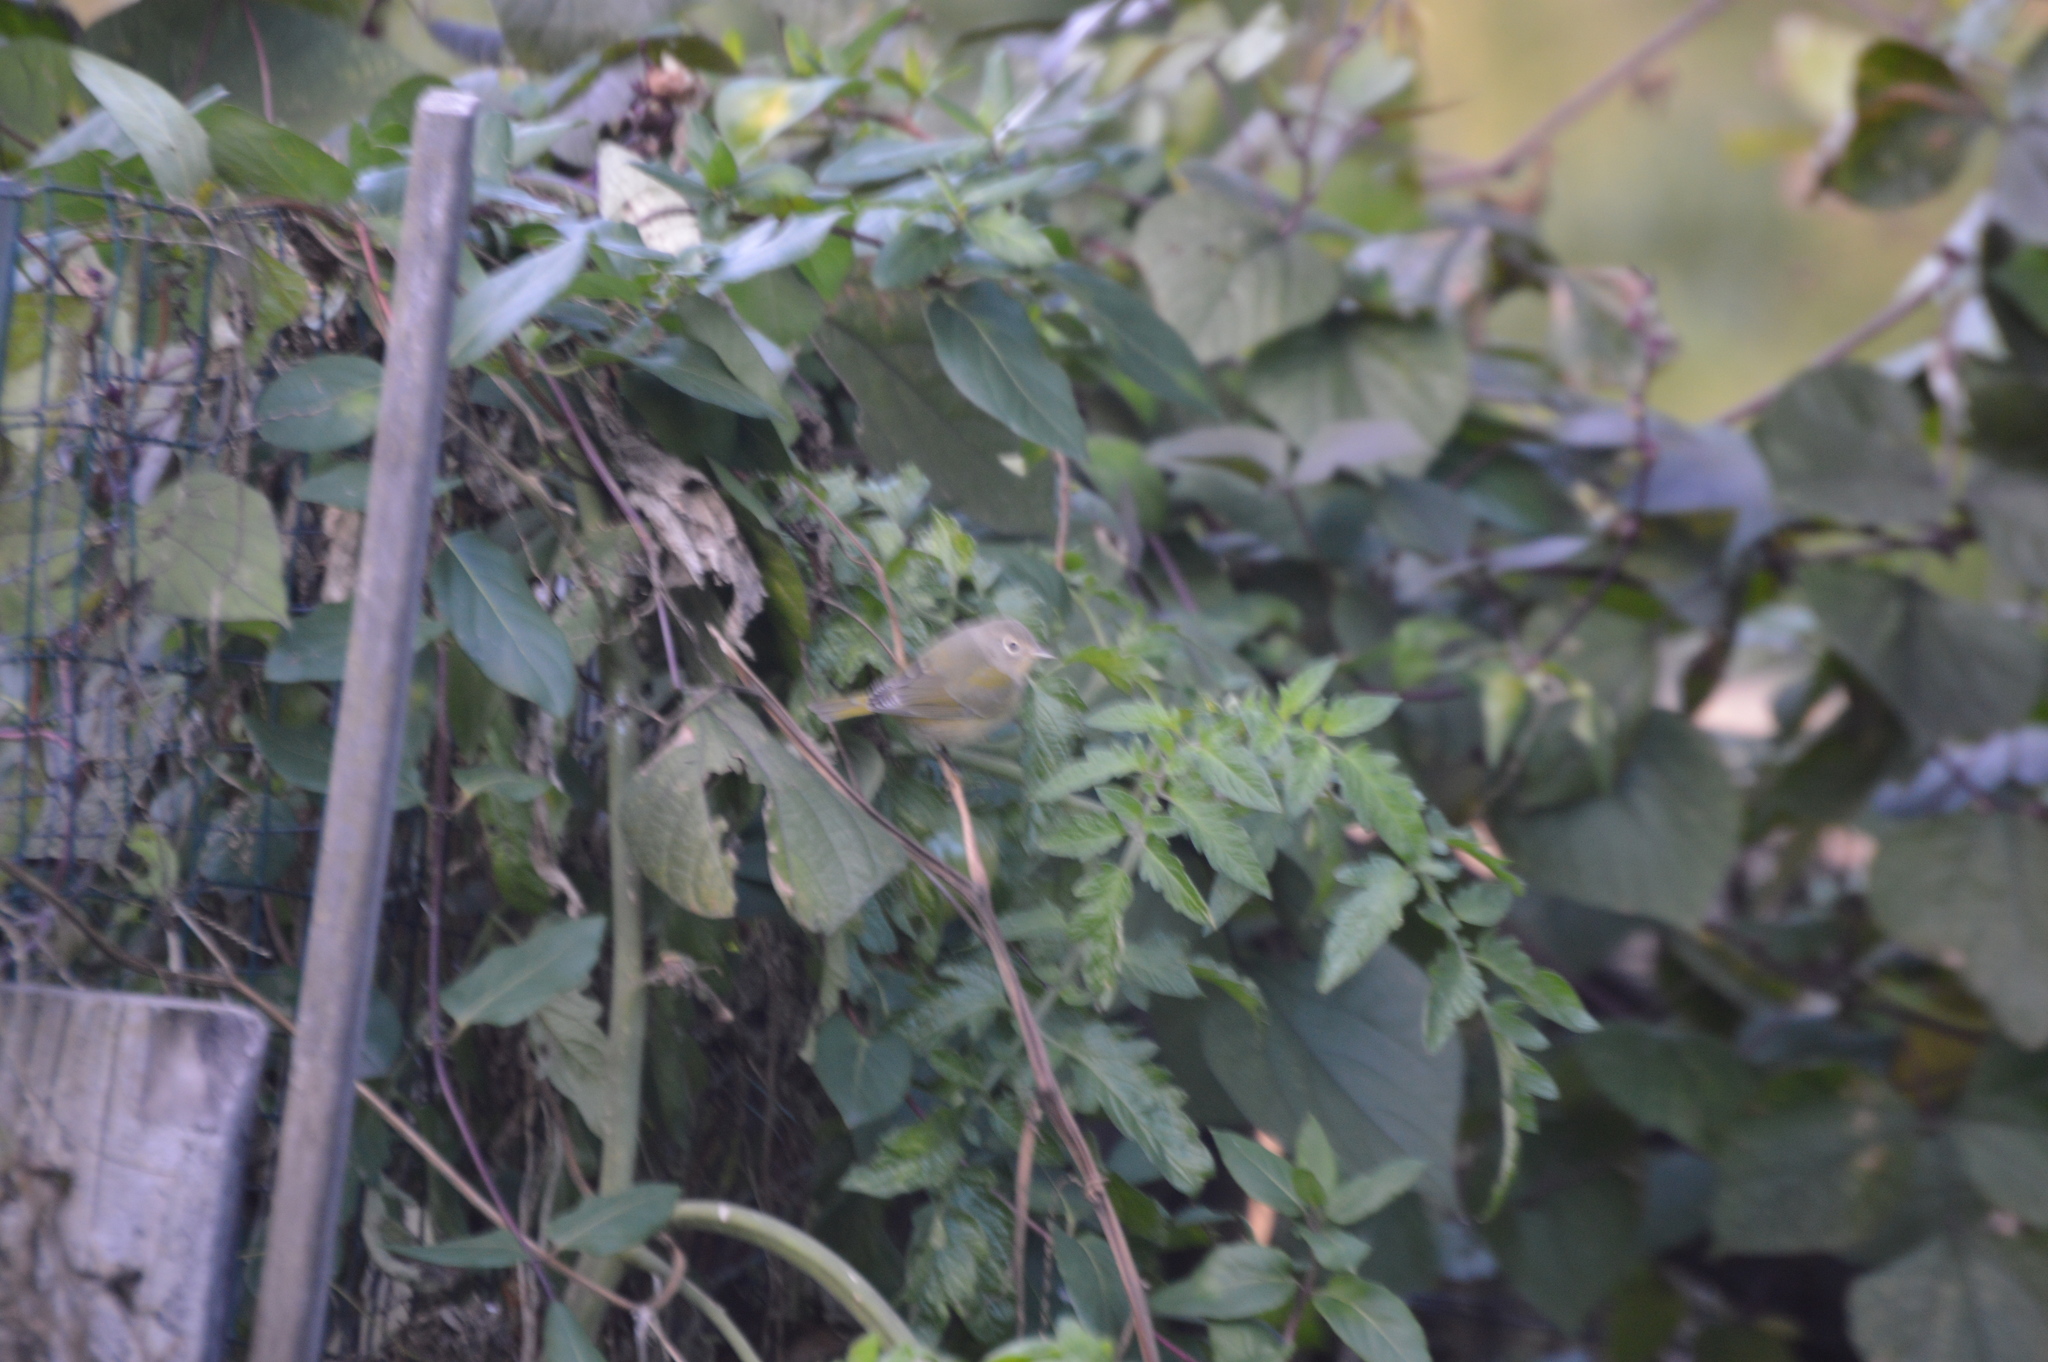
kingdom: Animalia
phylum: Chordata
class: Aves
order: Passeriformes
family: Parulidae
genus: Leiothlypis
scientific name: Leiothlypis ruficapilla
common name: Nashville warbler
